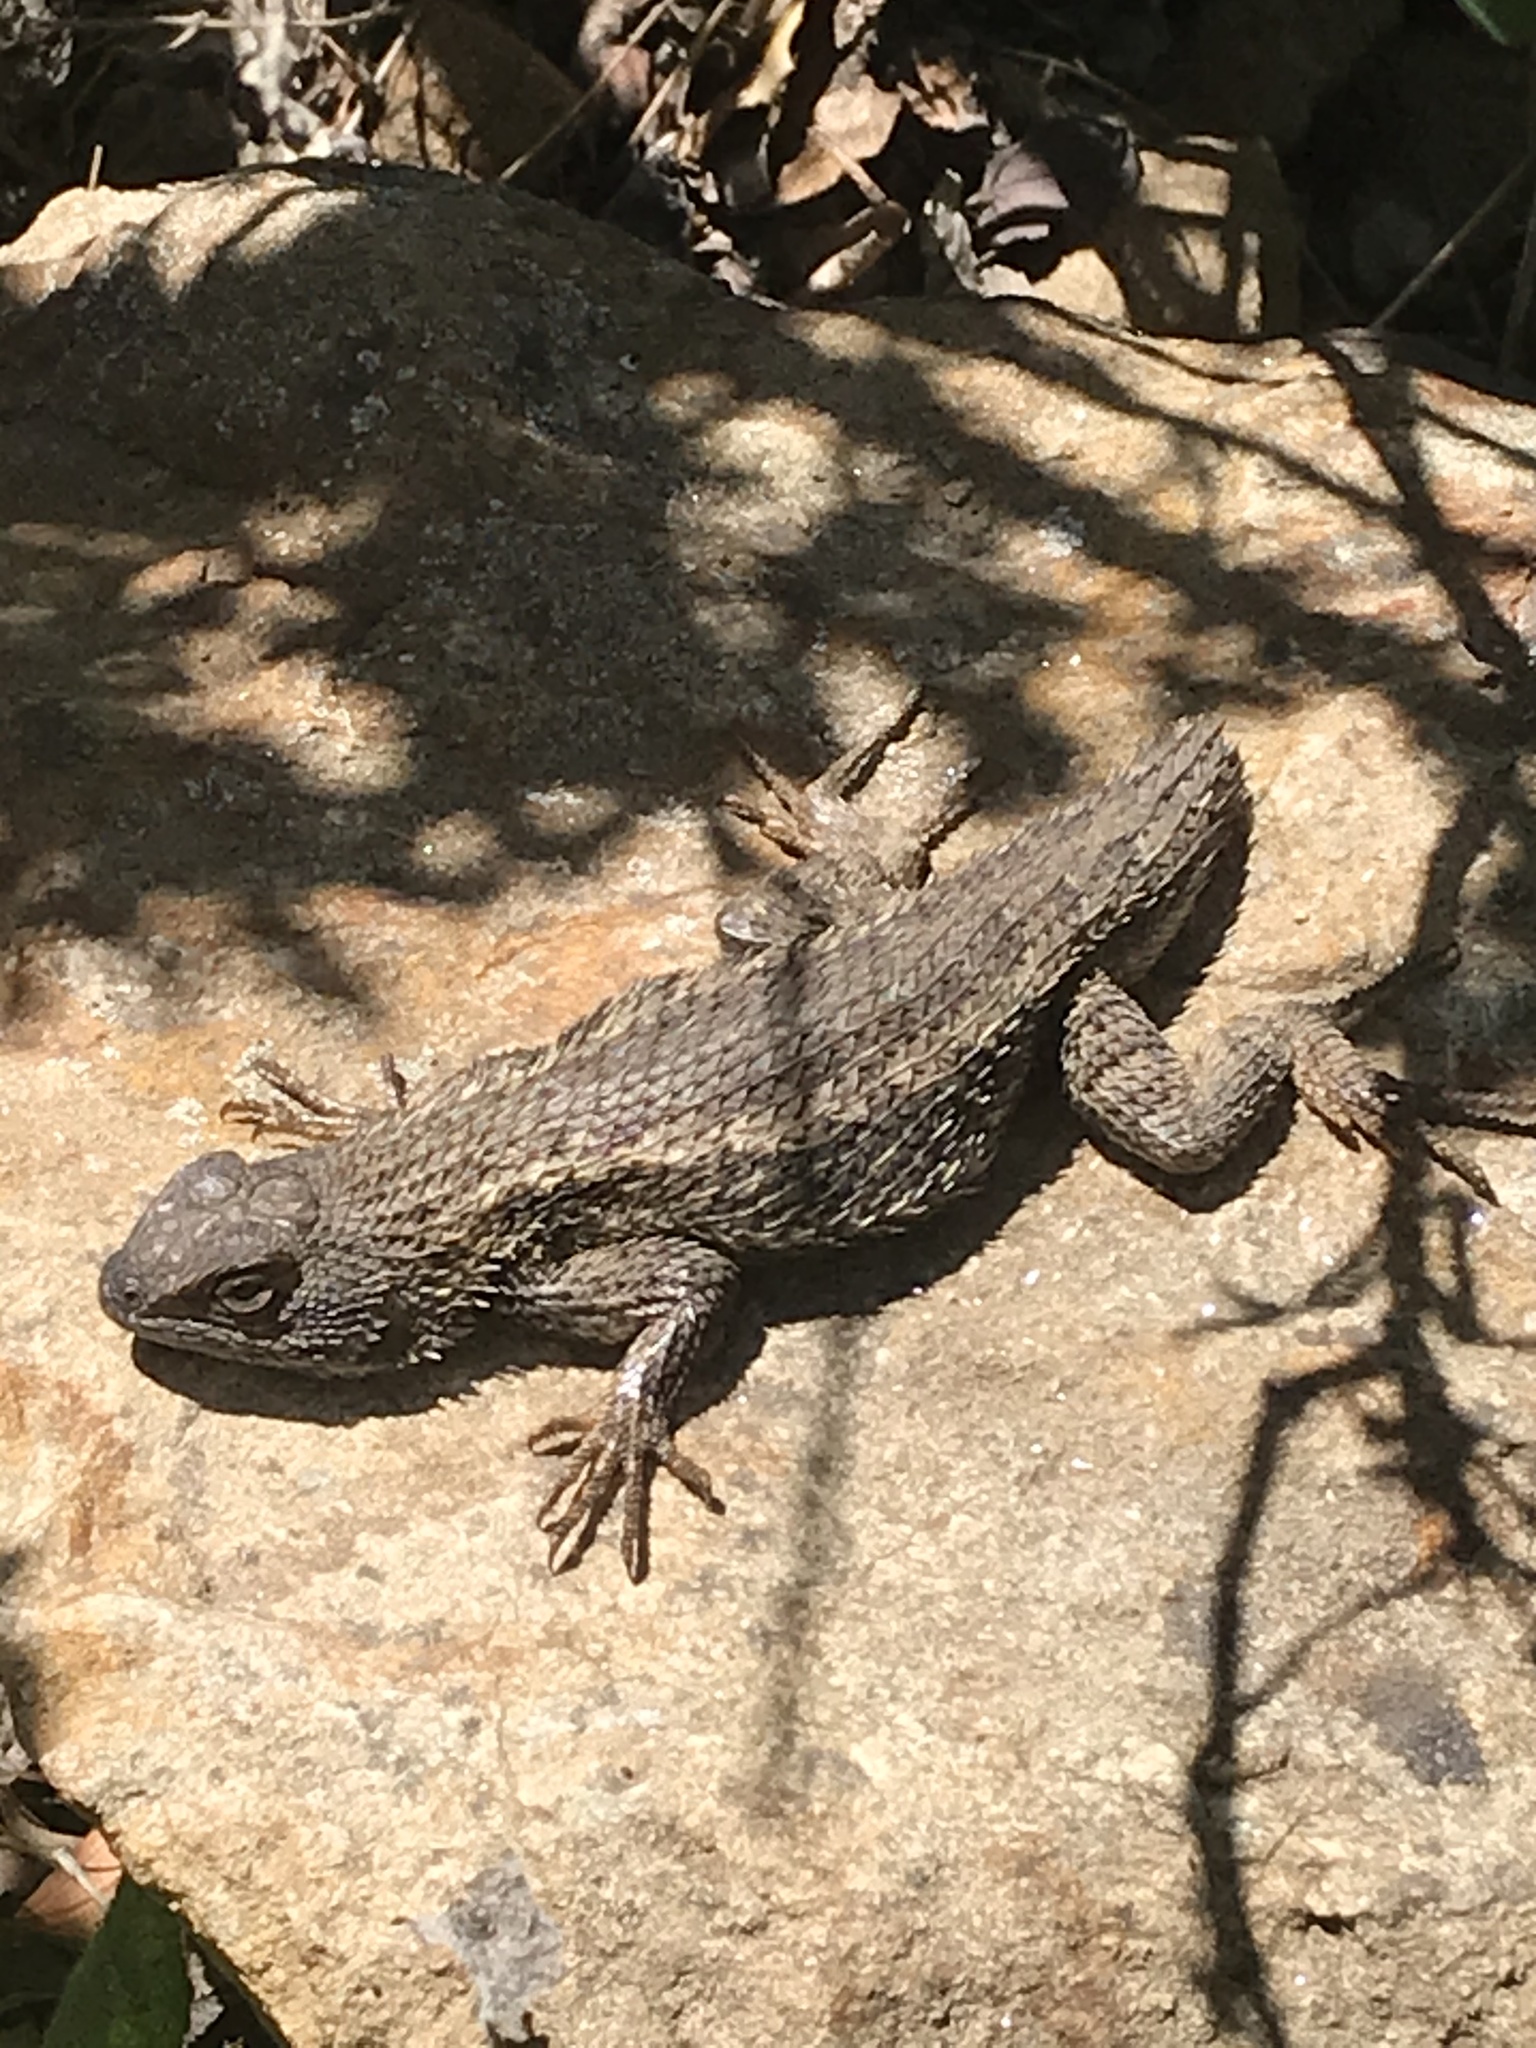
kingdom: Animalia
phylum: Chordata
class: Squamata
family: Phrynosomatidae
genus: Sceloporus
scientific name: Sceloporus occidentalis
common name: Western fence lizard
